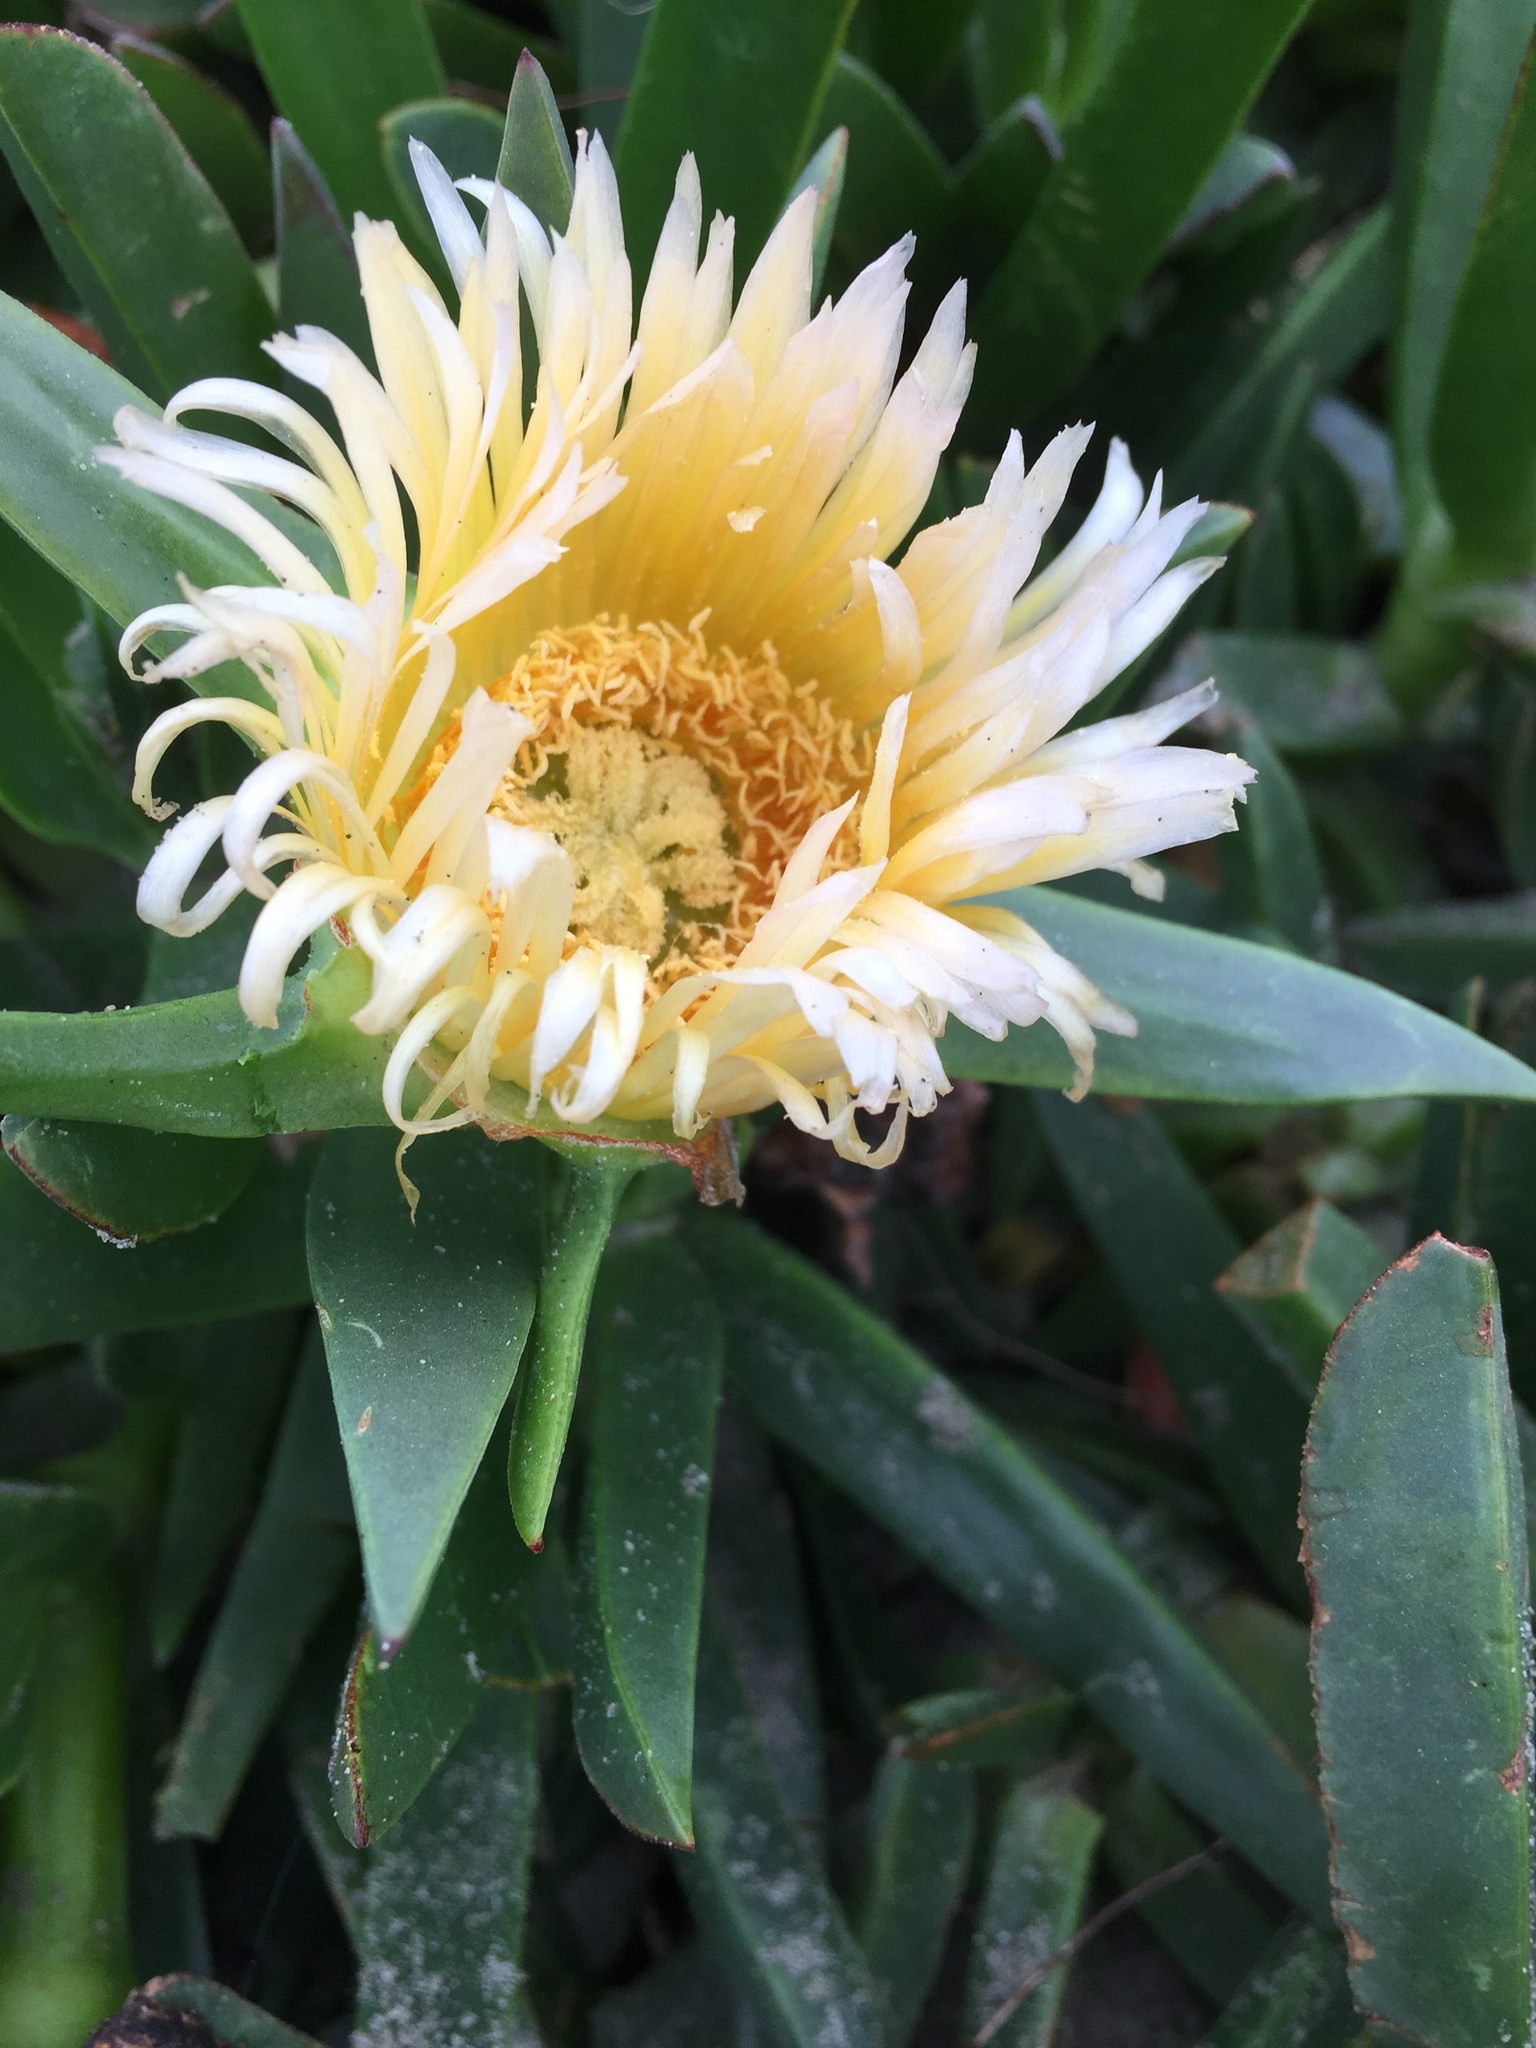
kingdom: Plantae
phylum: Tracheophyta
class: Magnoliopsida
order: Caryophyllales
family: Aizoaceae
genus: Carpobrotus
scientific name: Carpobrotus edulis
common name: Hottentot-fig
